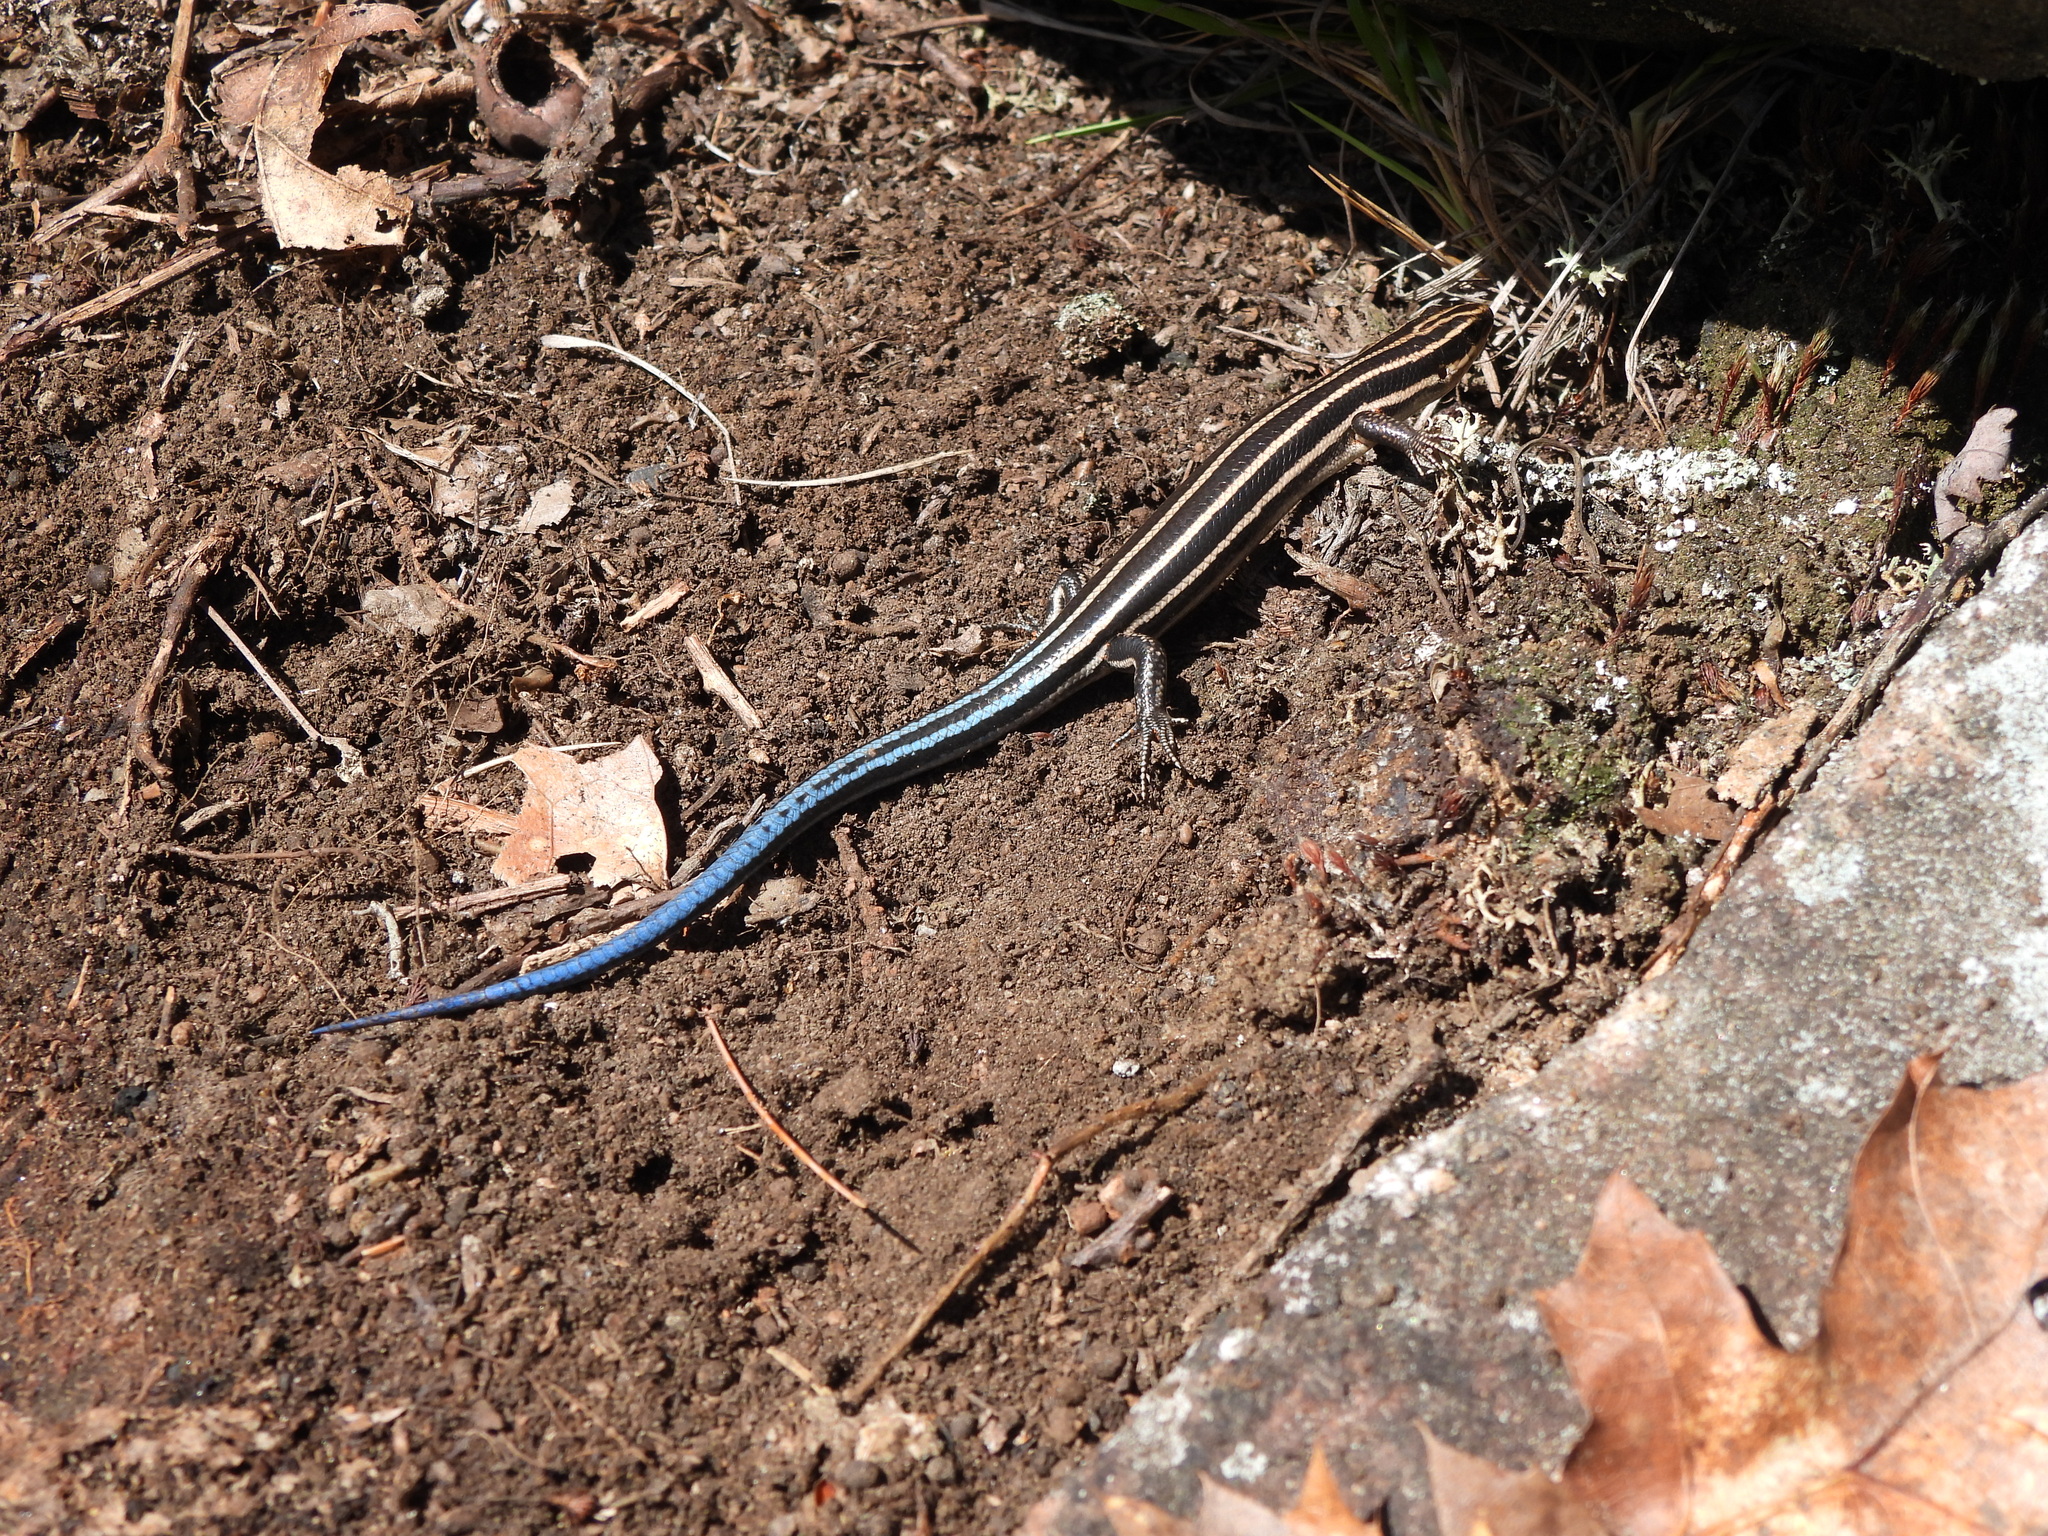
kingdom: Animalia
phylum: Chordata
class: Squamata
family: Scincidae
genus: Plestiodon
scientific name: Plestiodon fasciatus
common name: Five-lined skink
